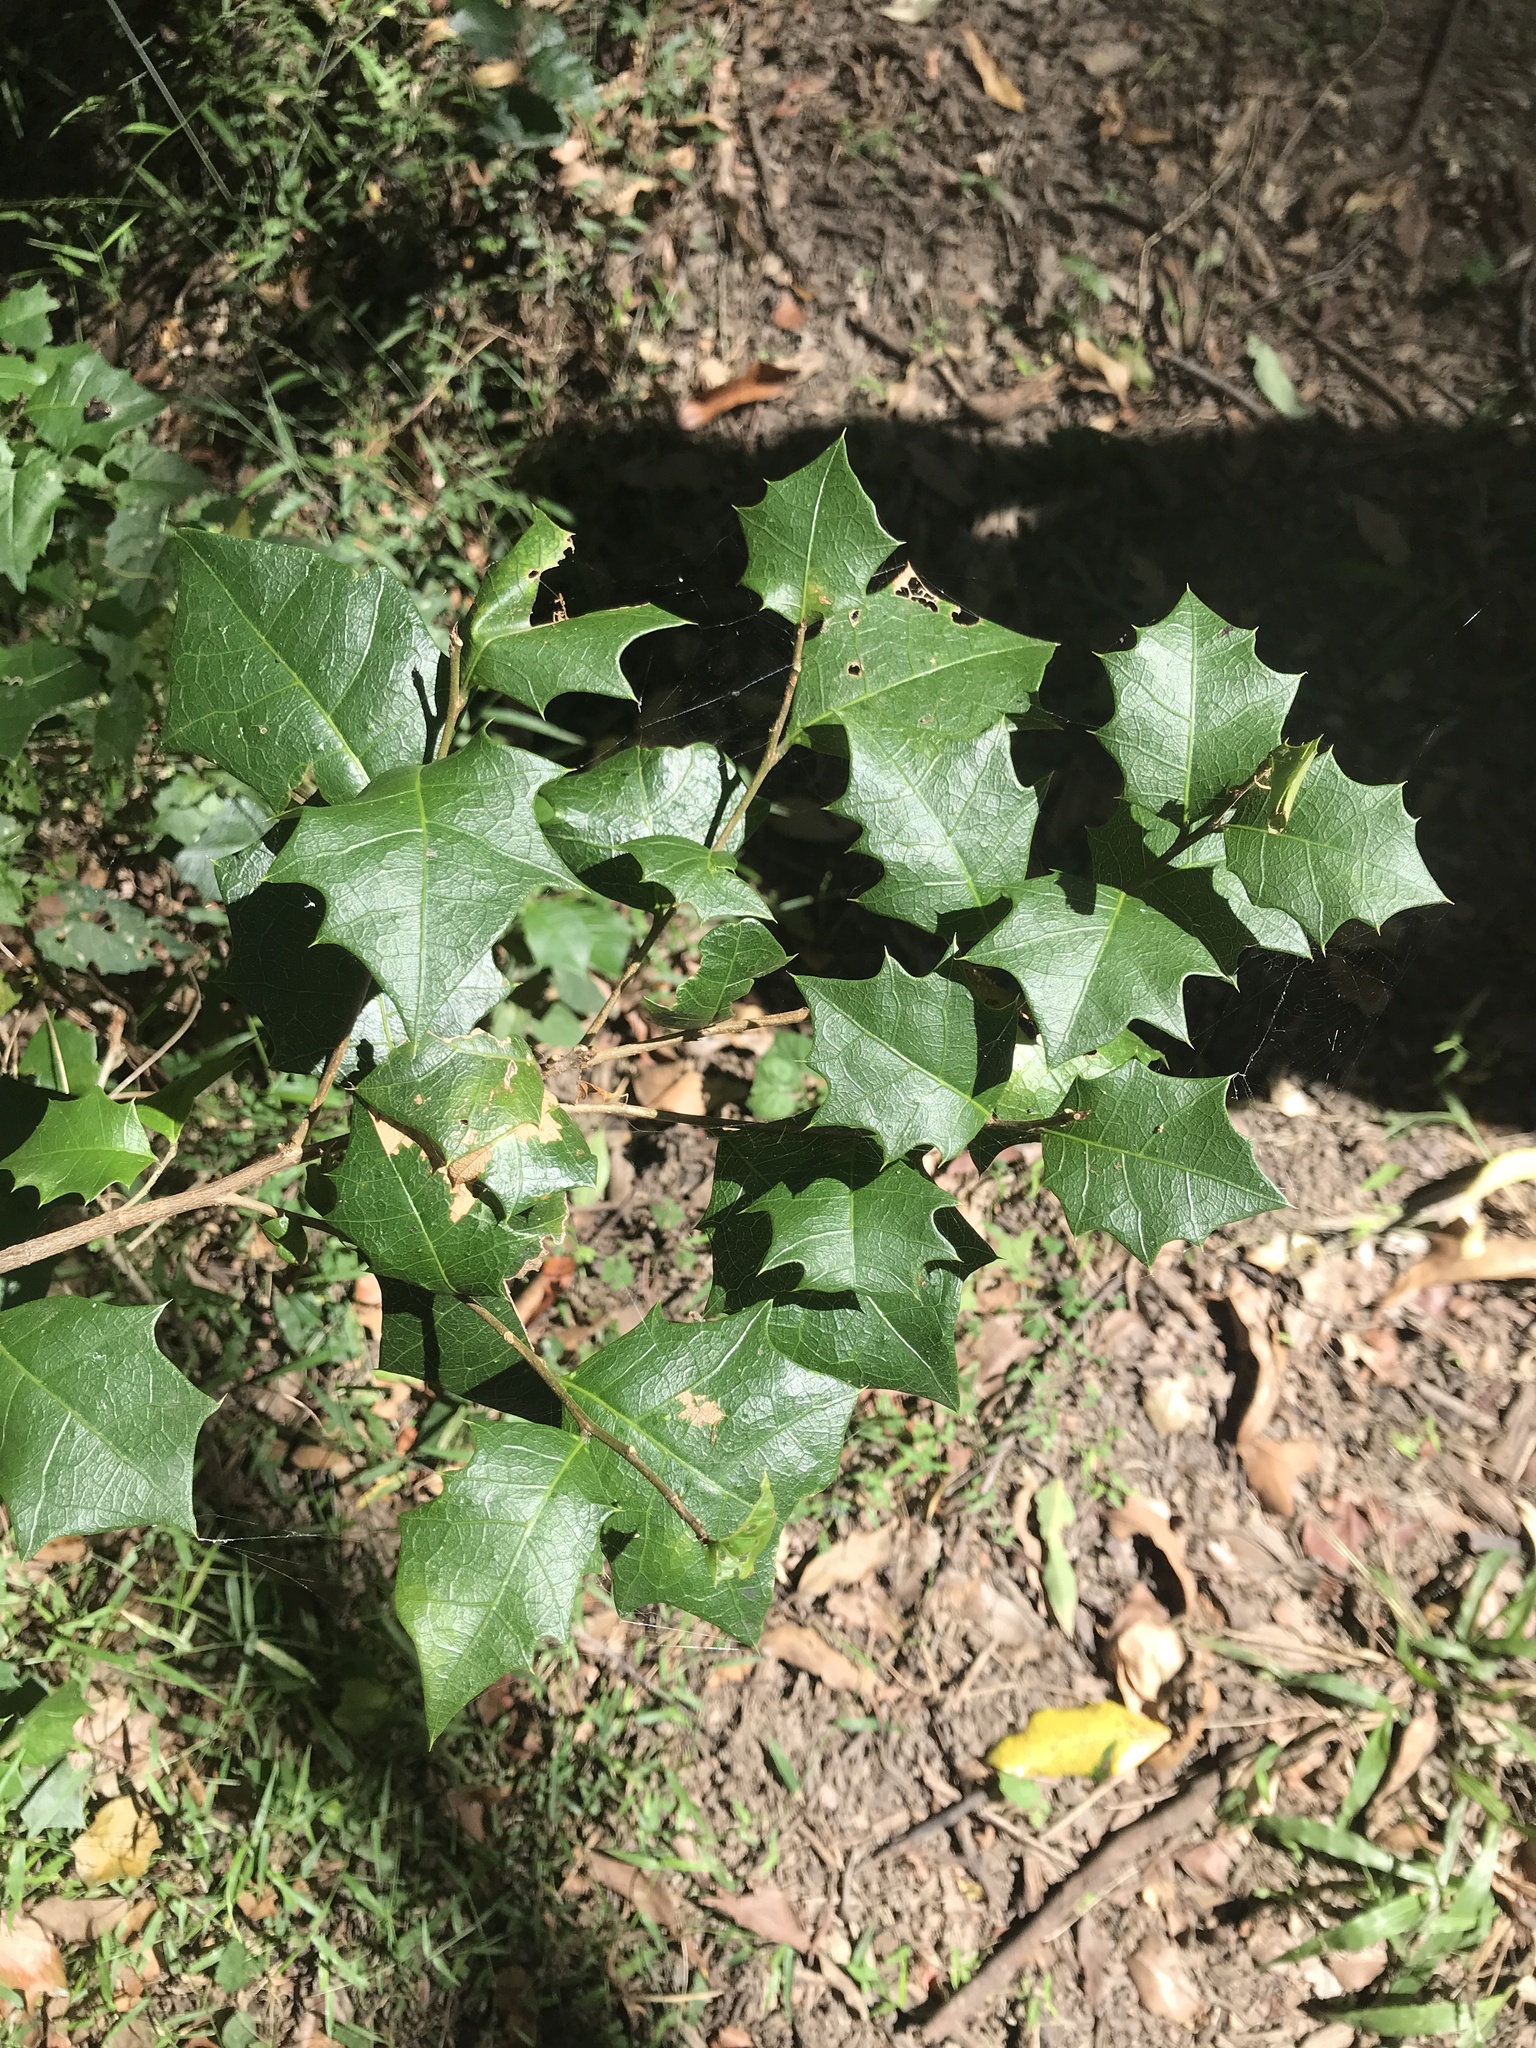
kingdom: Plantae
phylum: Tracheophyta
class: Magnoliopsida
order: Malpighiales
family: Euphorbiaceae
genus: Alchornea
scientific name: Alchornea ilicifolia
